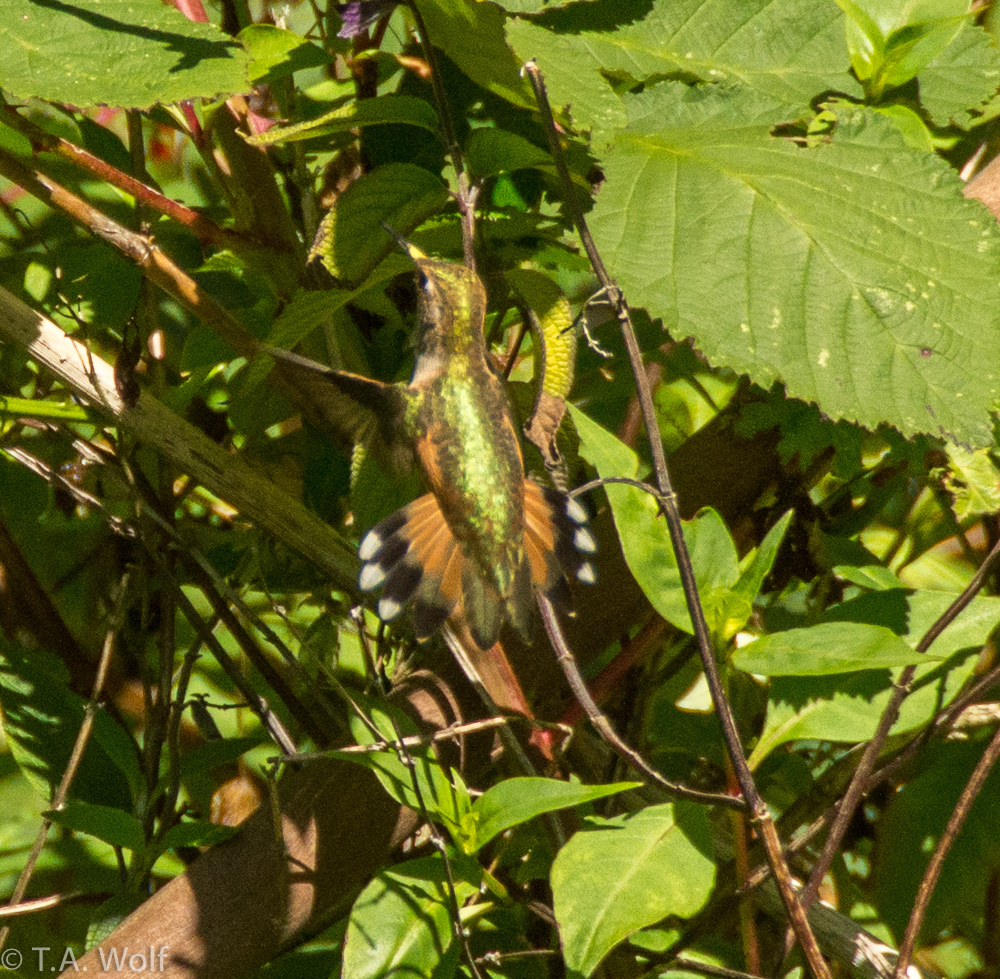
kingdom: Animalia
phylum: Chordata
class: Aves
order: Apodiformes
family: Trochilidae
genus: Selasphorus
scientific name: Selasphorus
